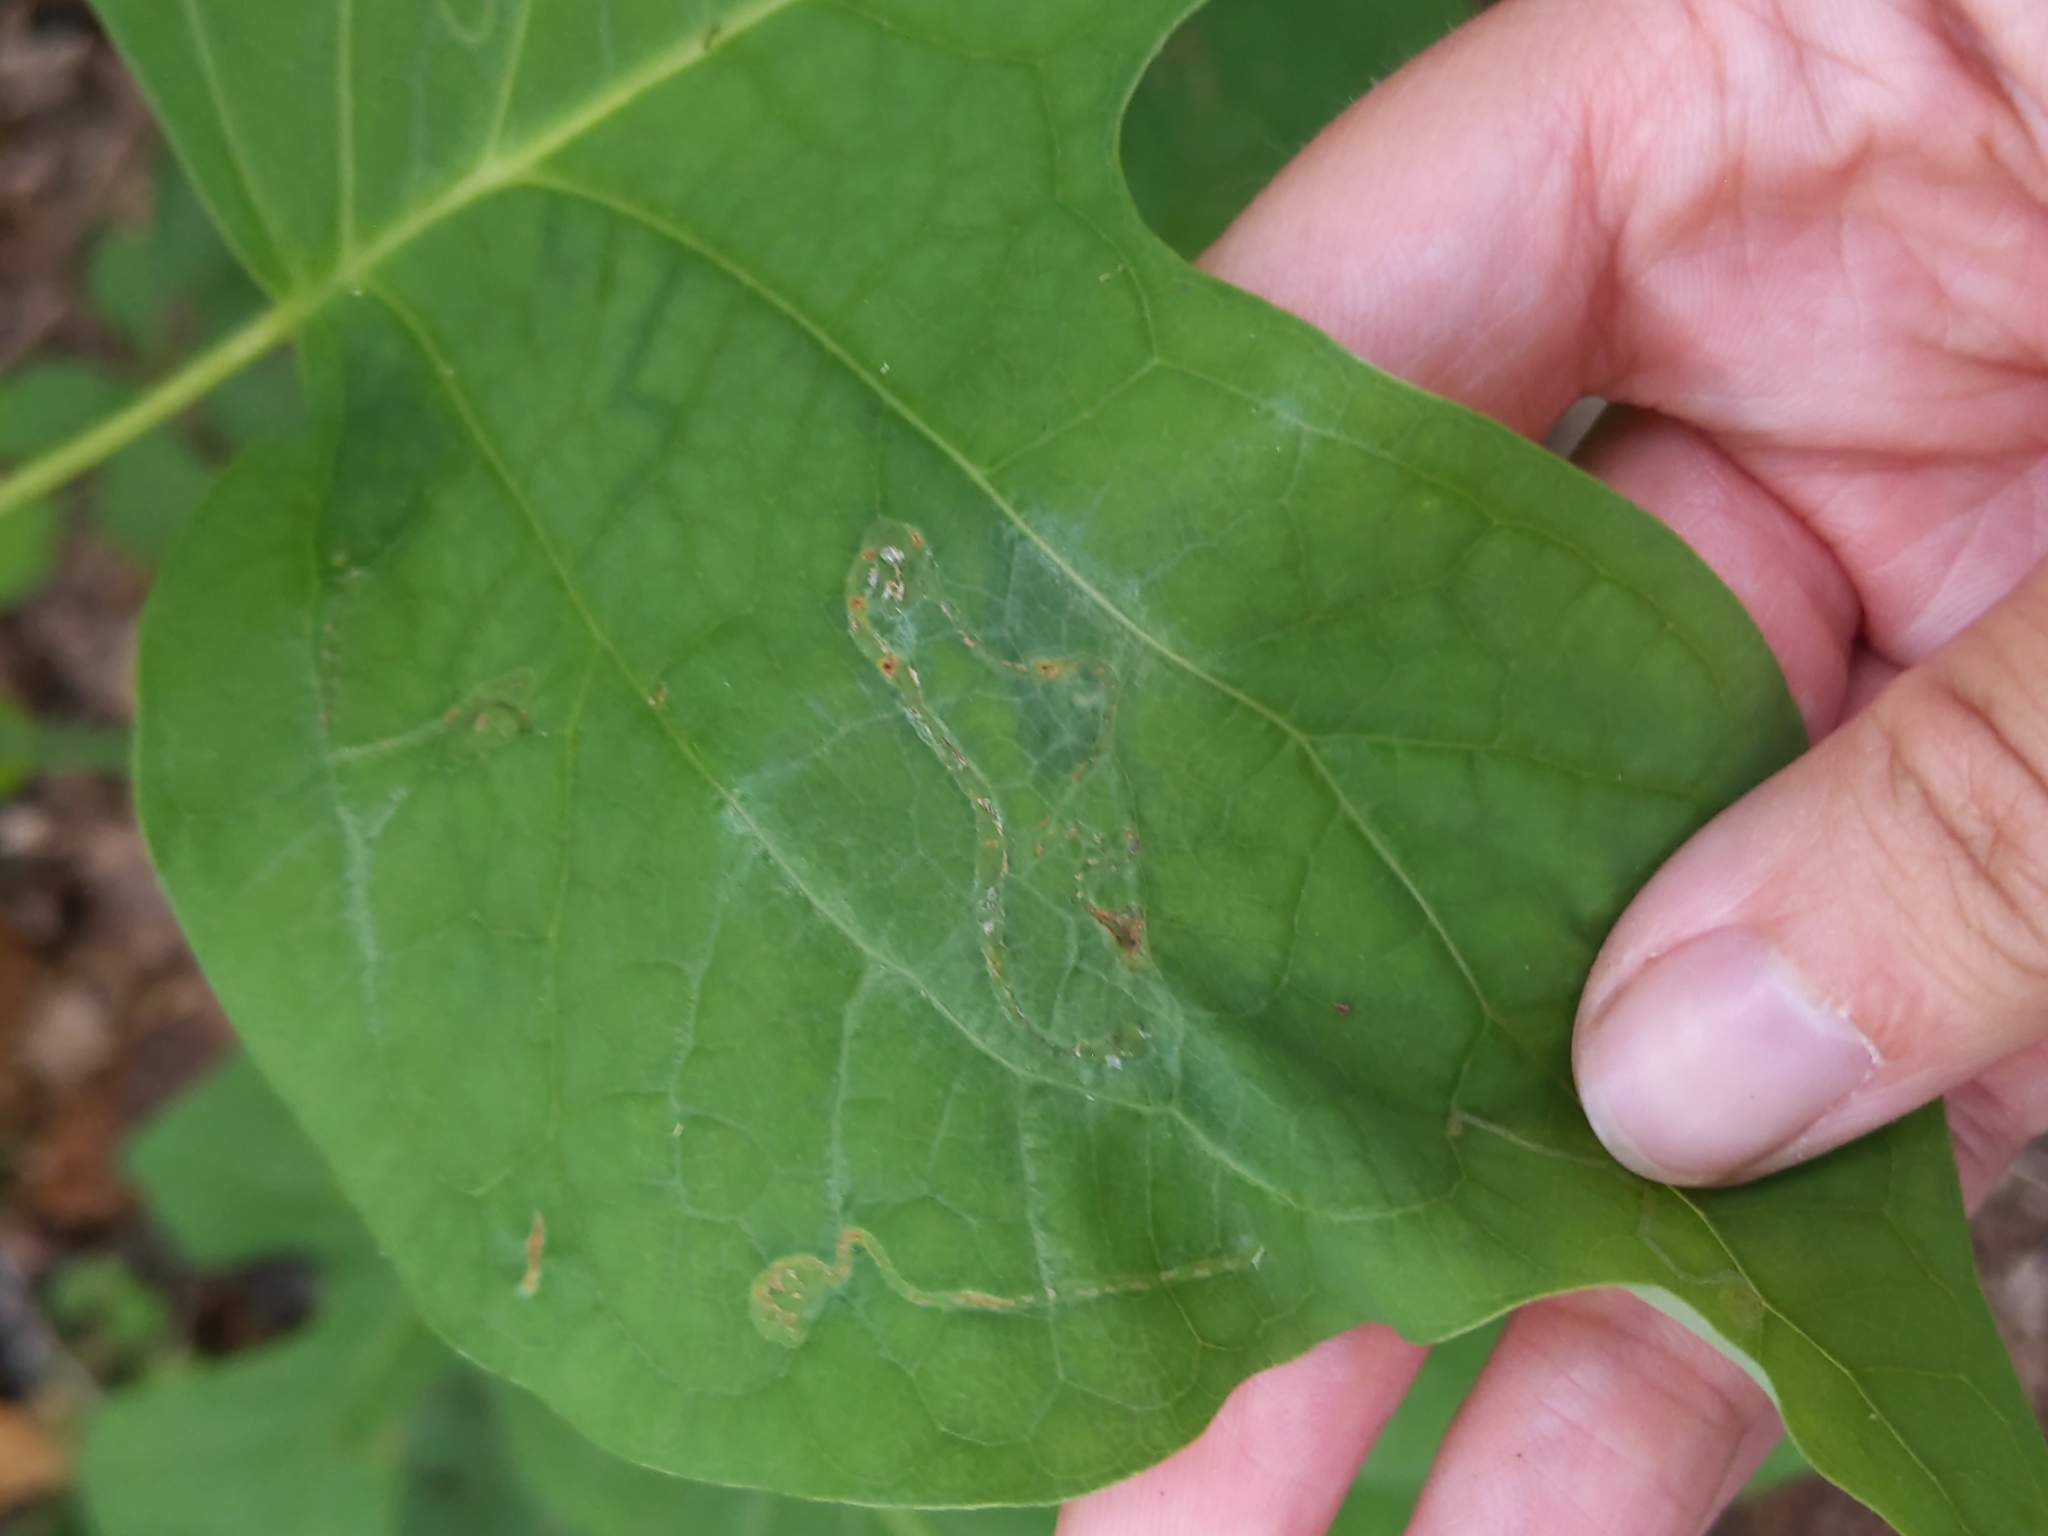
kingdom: Animalia
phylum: Arthropoda
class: Insecta
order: Lepidoptera
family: Gracillariidae
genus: Phyllocnistis
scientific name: Phyllocnistis liriodendronella
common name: Tulip tree leaf miner
